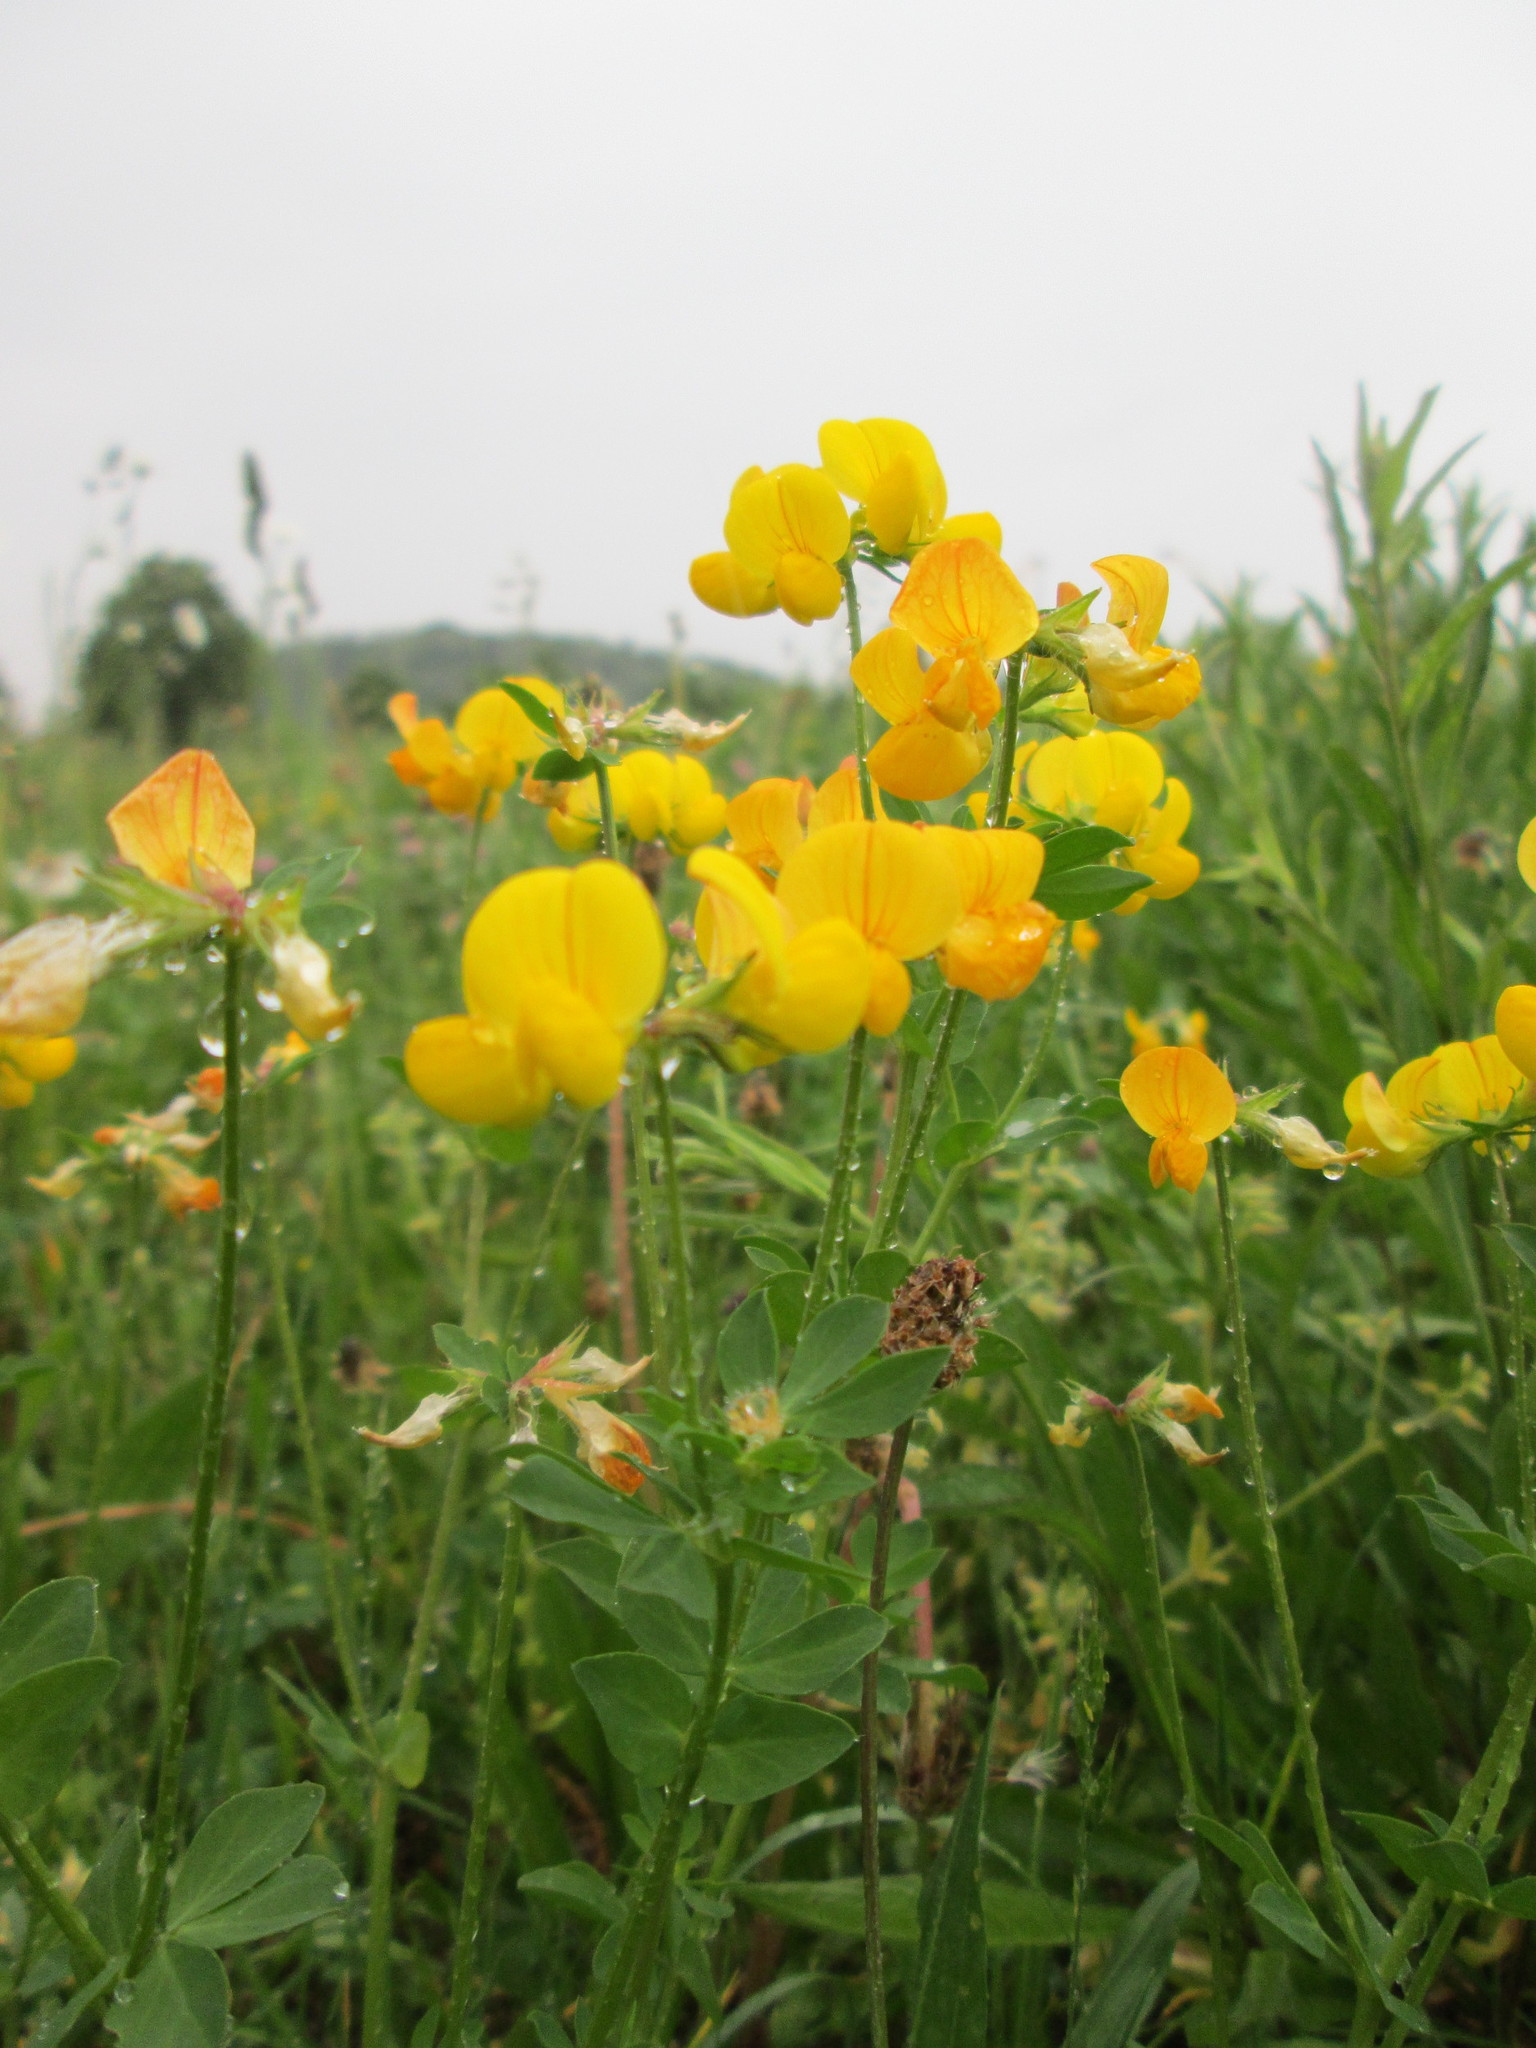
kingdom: Plantae
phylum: Tracheophyta
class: Magnoliopsida
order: Fabales
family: Fabaceae
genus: Lotus
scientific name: Lotus corniculatus
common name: Common bird's-foot-trefoil
